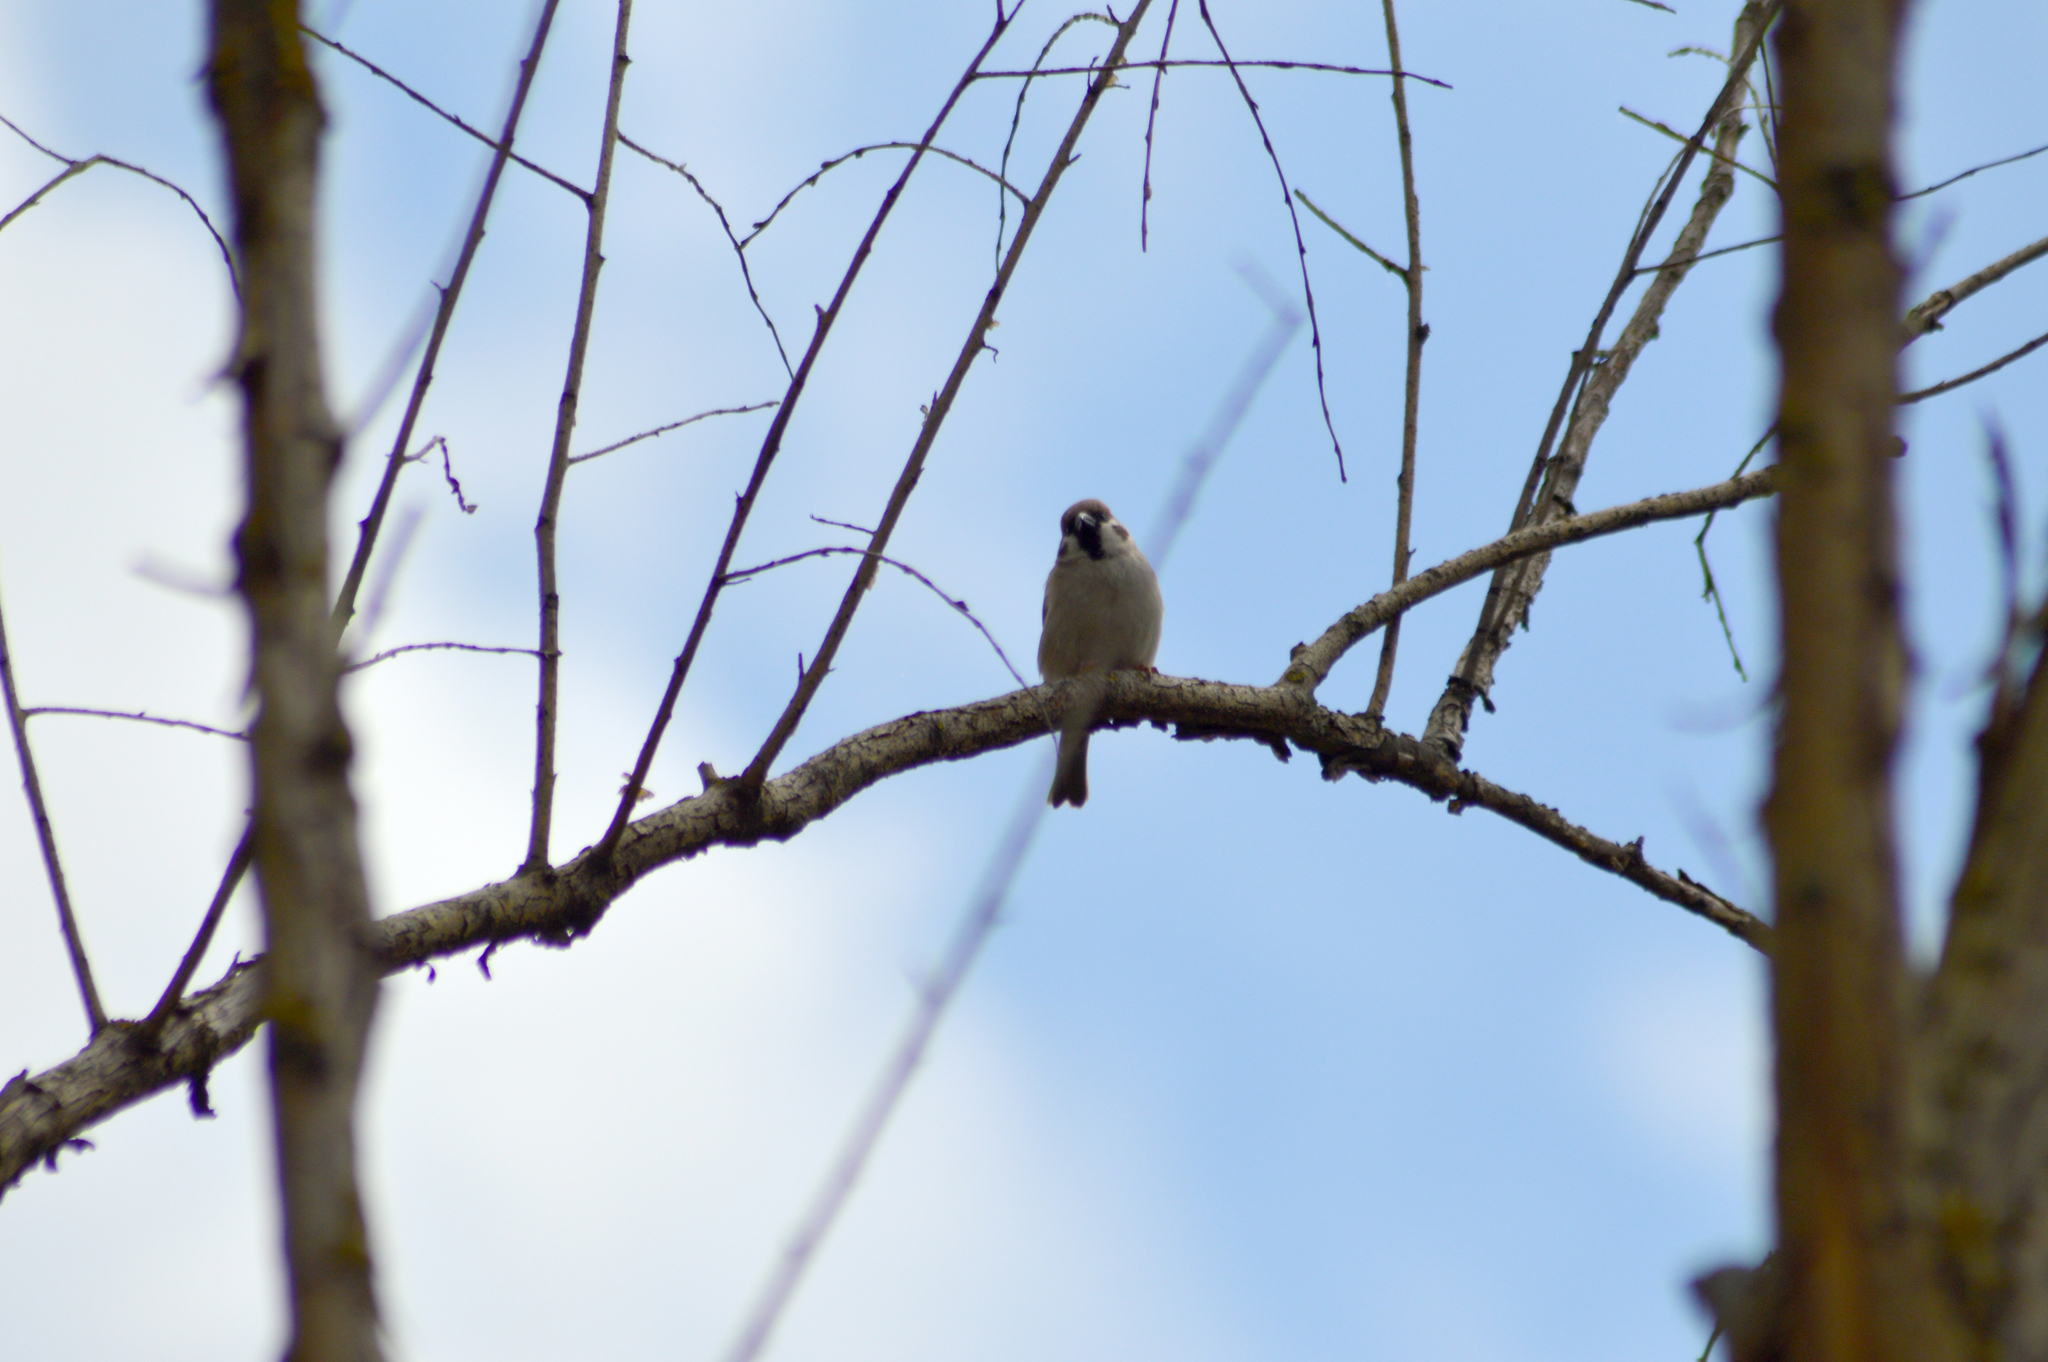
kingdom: Animalia
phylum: Chordata
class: Aves
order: Passeriformes
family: Passeridae
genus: Passer
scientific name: Passer montanus
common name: Eurasian tree sparrow
